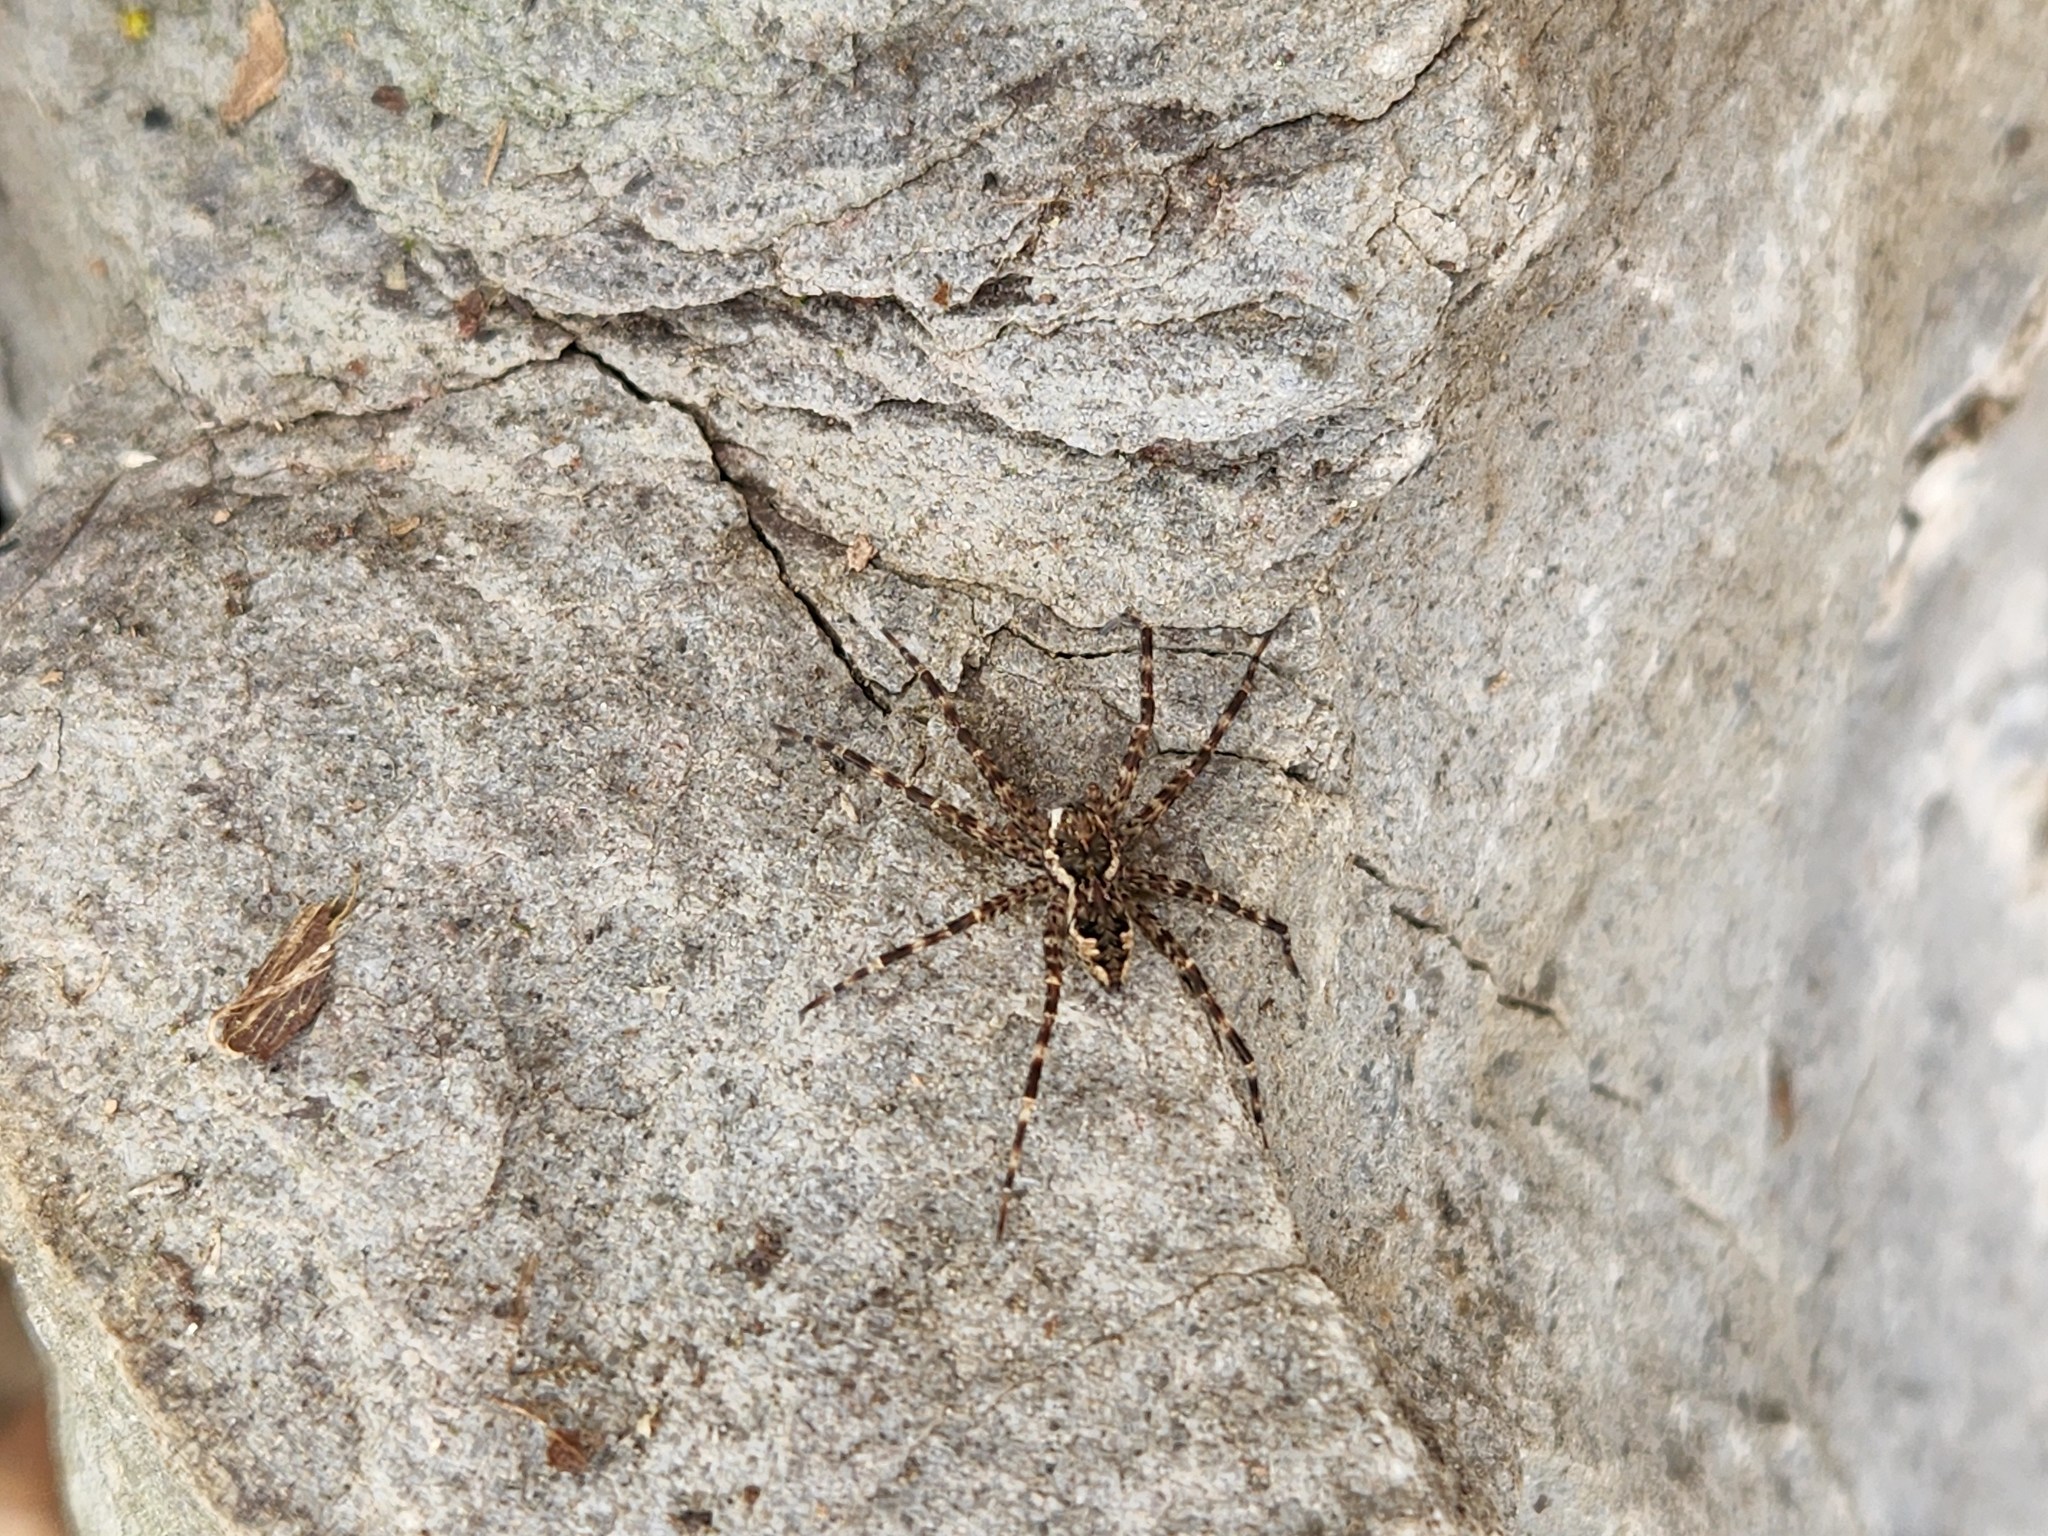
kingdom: Animalia
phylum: Arthropoda
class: Arachnida
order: Araneae
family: Pisauridae
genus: Dolomedes
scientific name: Dolomedes tenebrosus
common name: Dark fishing spider
